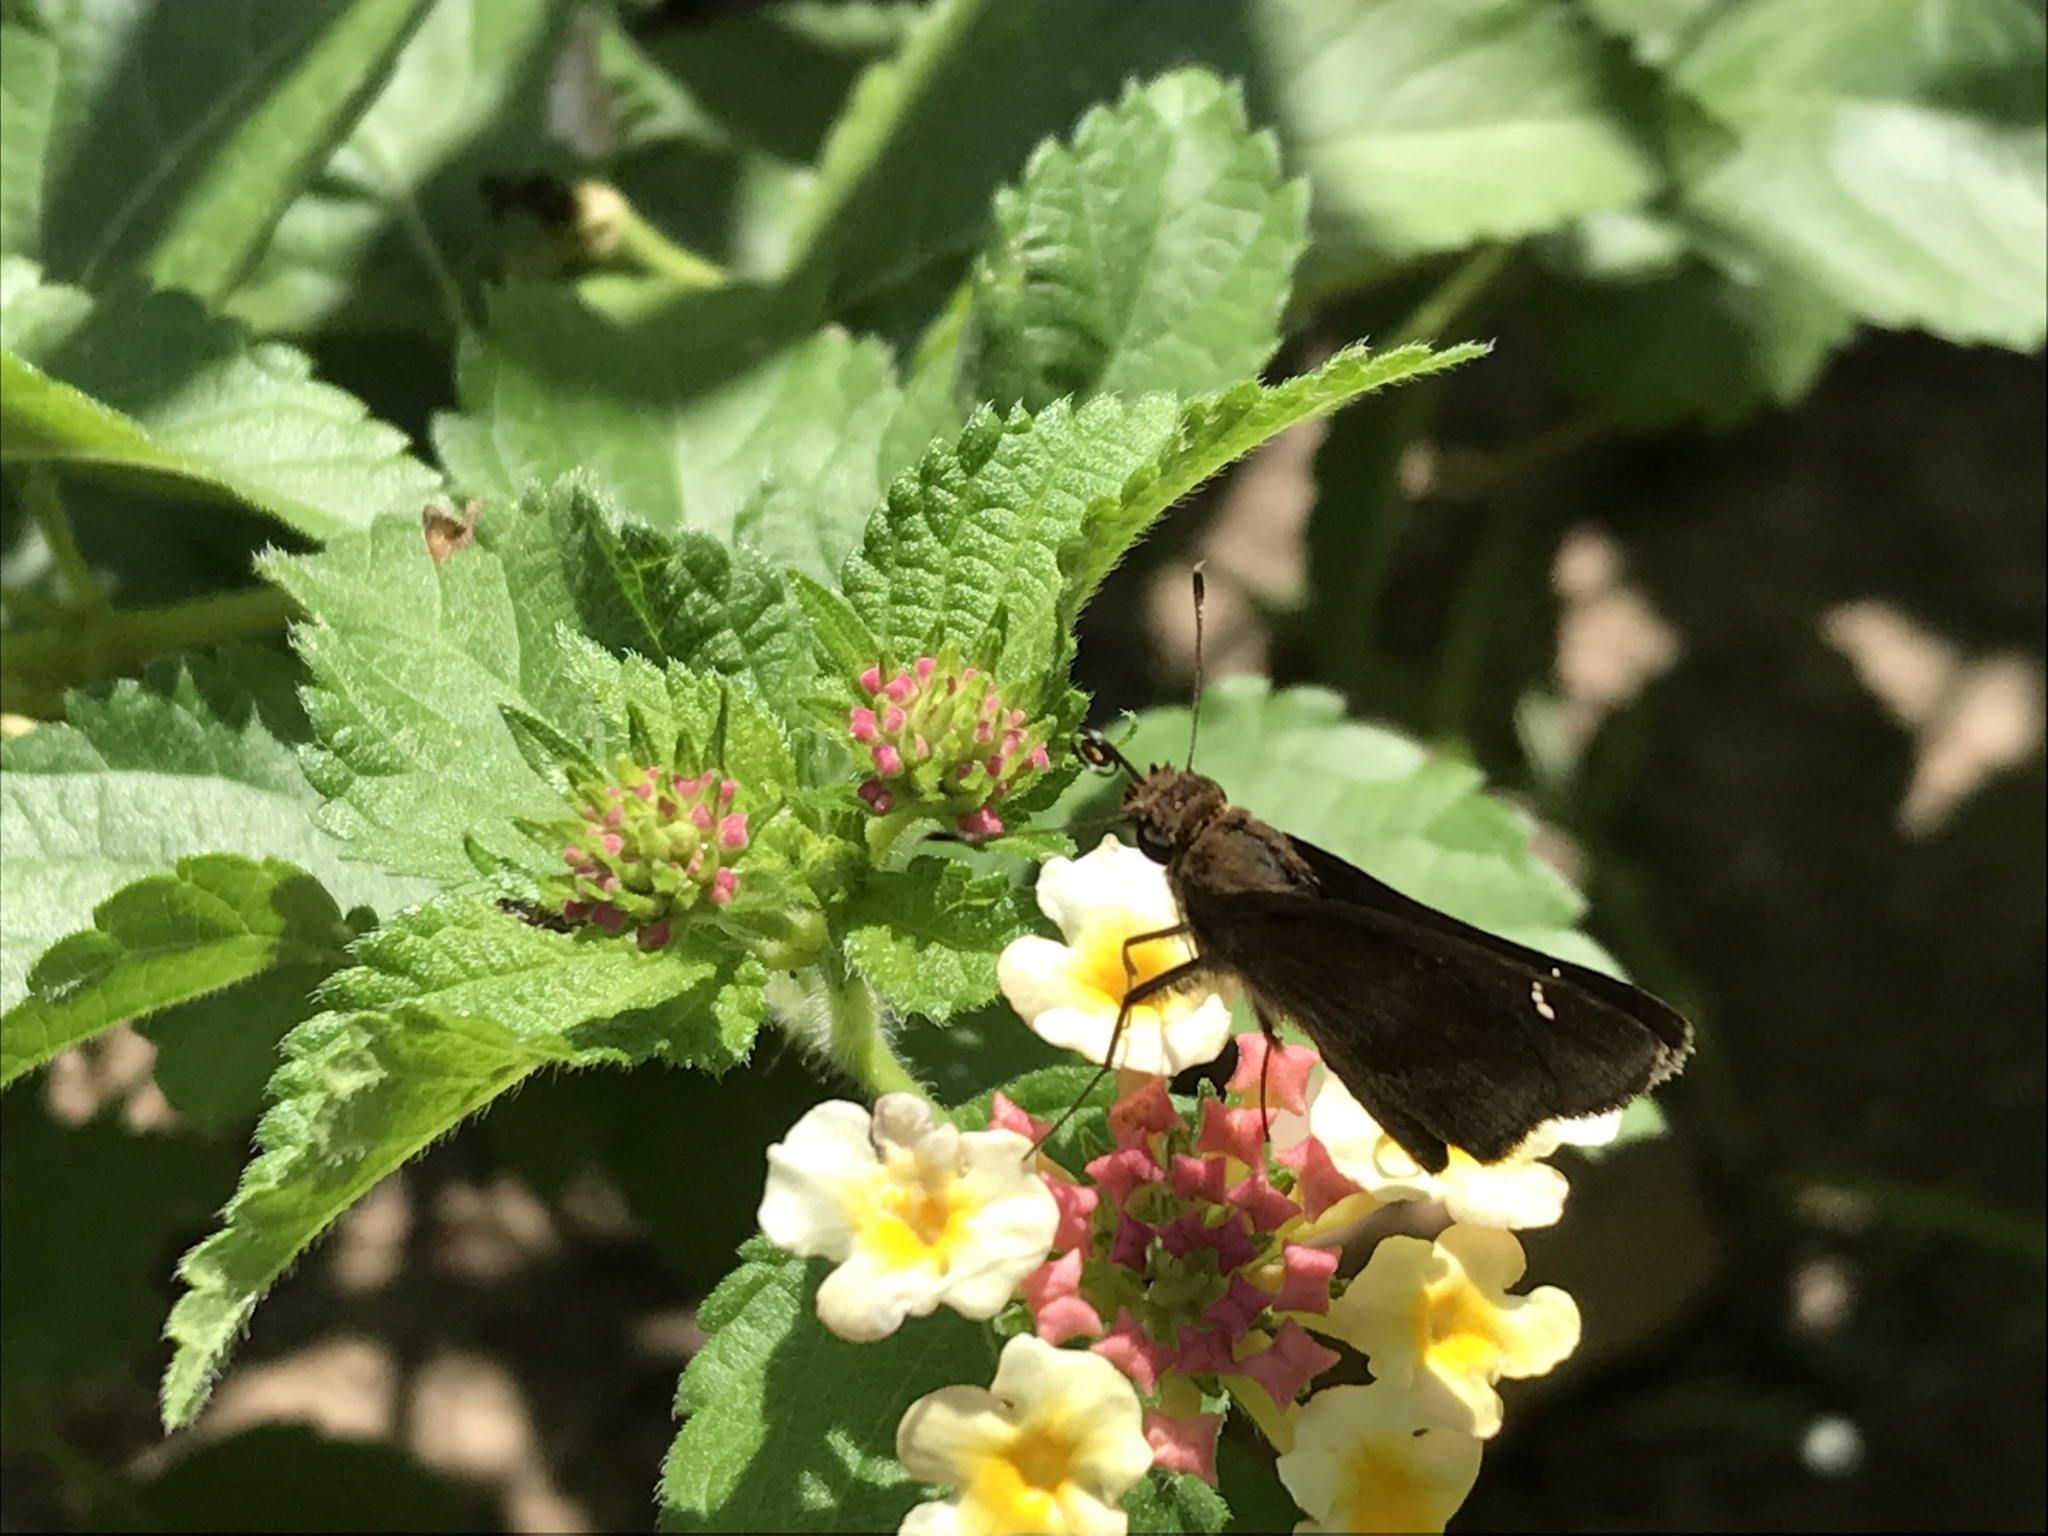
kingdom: Animalia
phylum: Arthropoda
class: Insecta
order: Lepidoptera
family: Hesperiidae
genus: Lerema
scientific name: Lerema accius
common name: Clouded skipper
